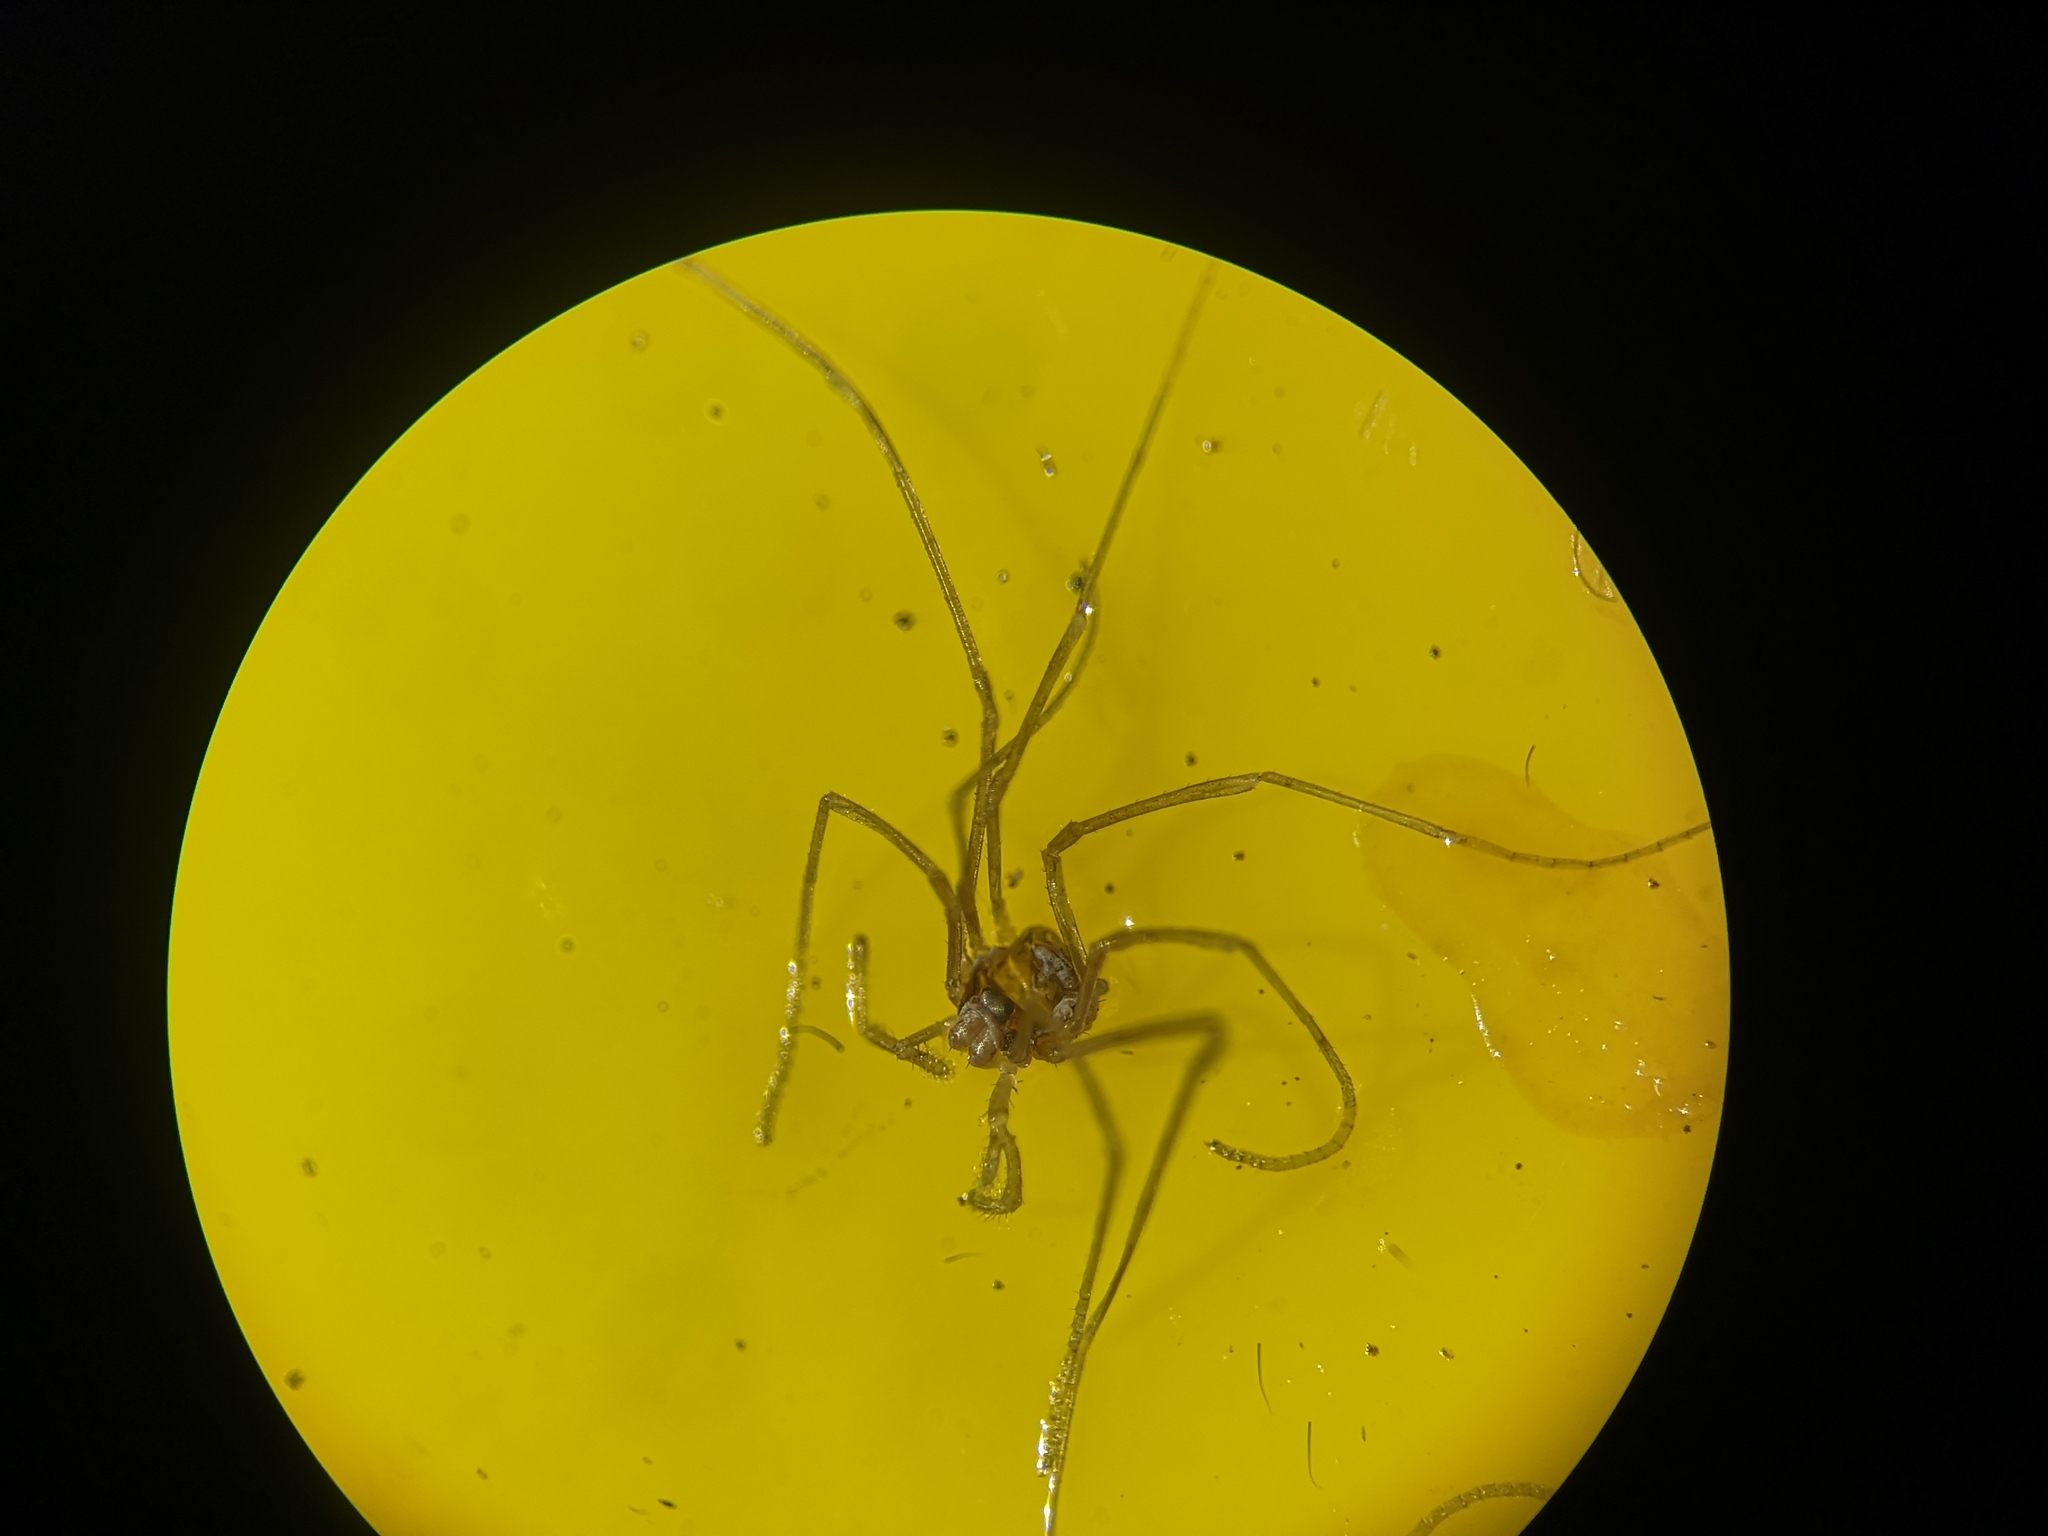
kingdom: Animalia
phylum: Arthropoda
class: Arachnida
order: Opiliones
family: Phalangiidae
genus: Dicranopalpus
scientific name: Dicranopalpus ramosus
